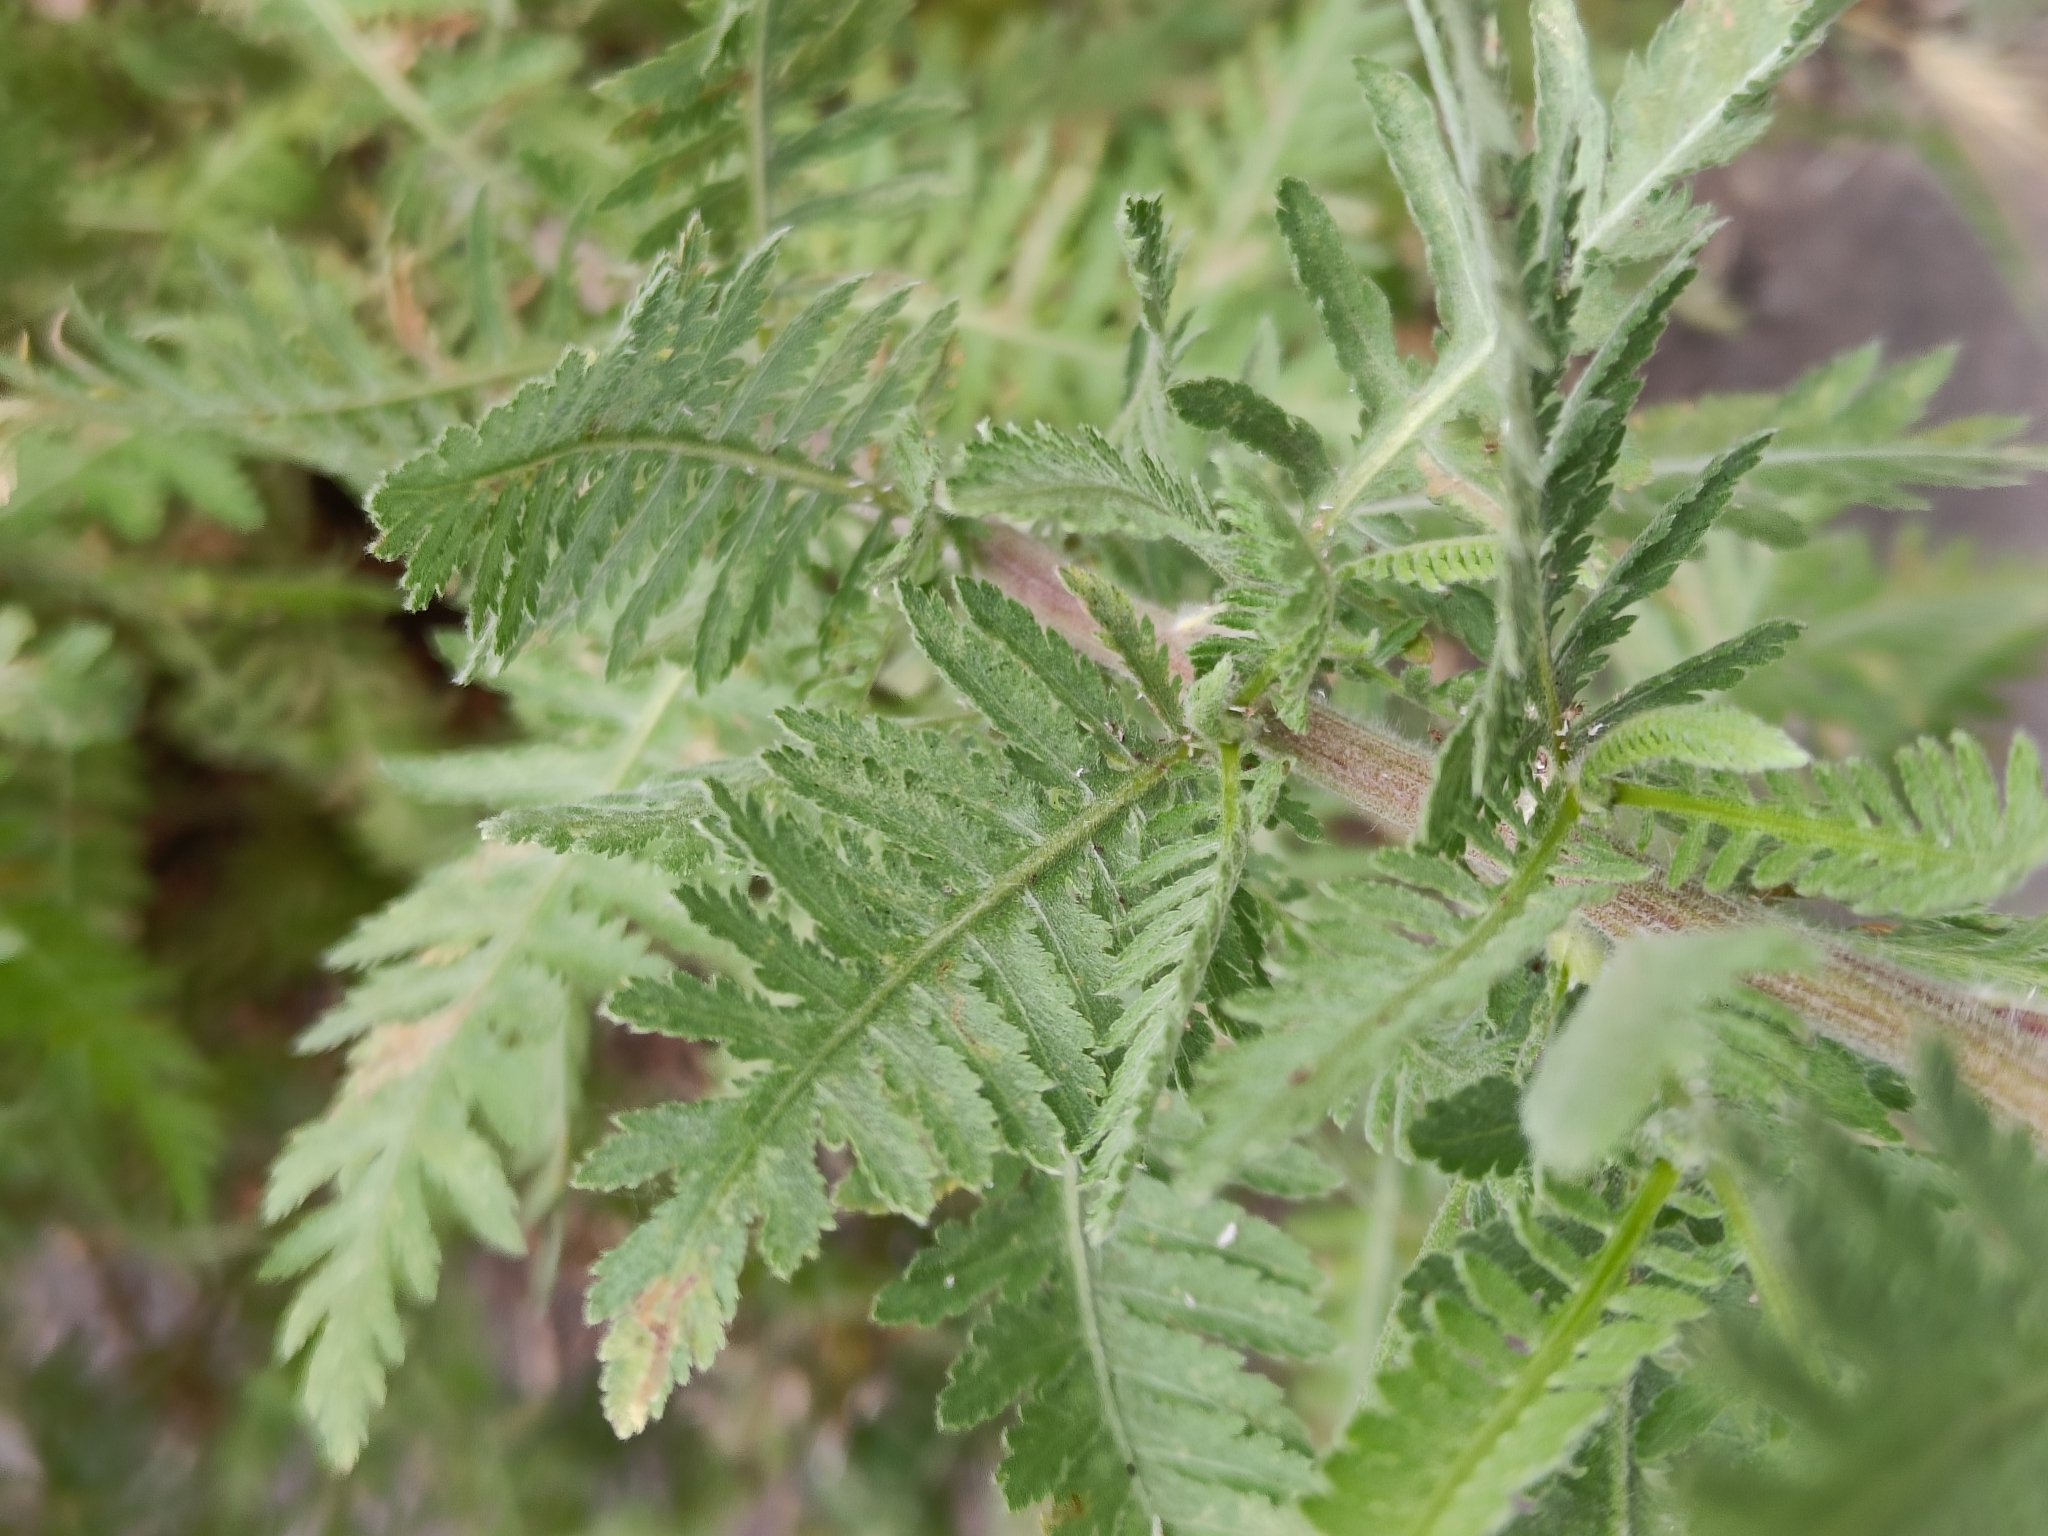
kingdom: Plantae
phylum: Tracheophyta
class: Magnoliopsida
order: Asterales
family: Asteraceae
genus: Achillea
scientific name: Achillea filipendulina
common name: Fernleaf yarrow
